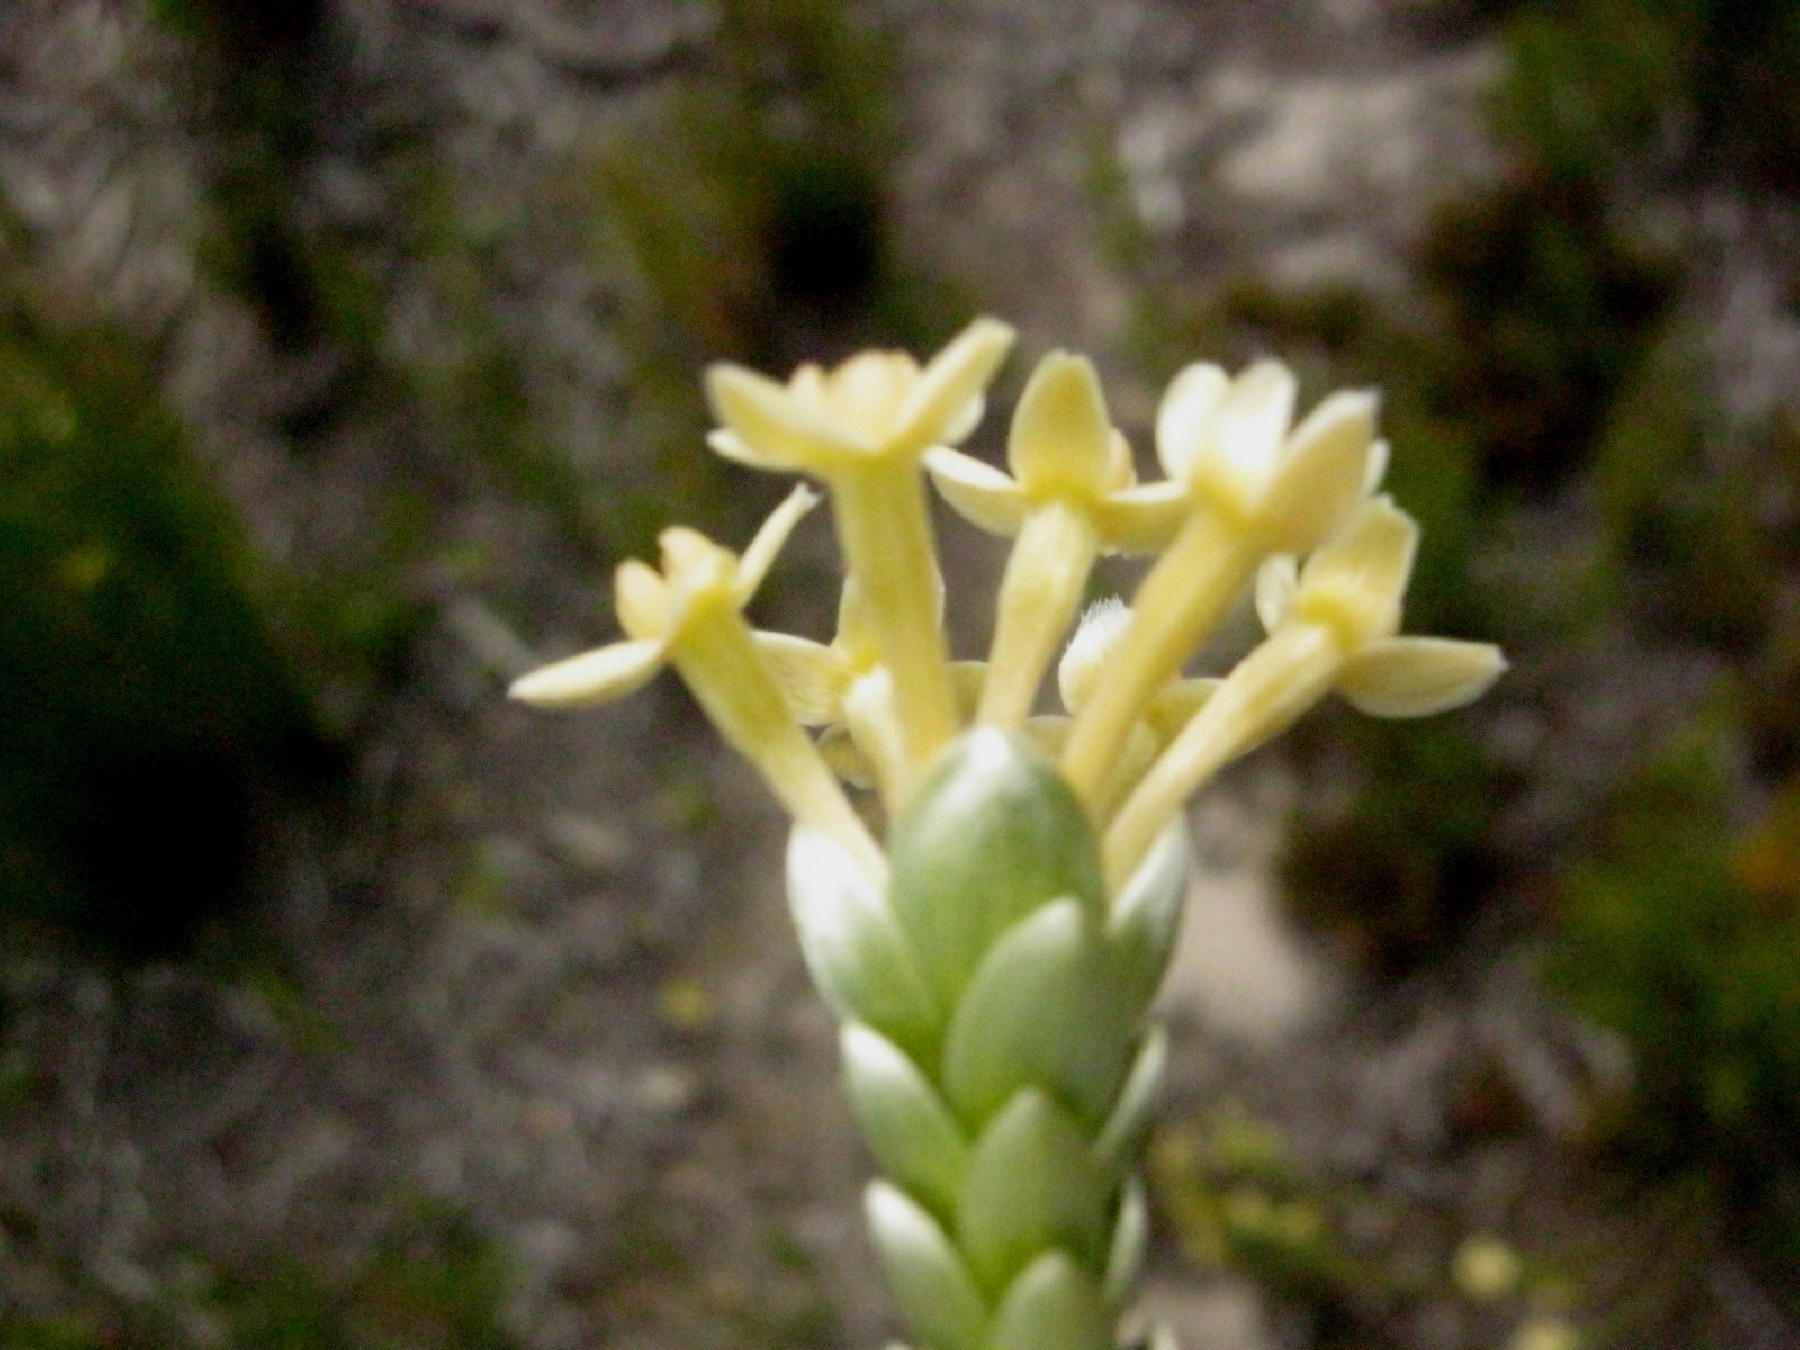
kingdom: Plantae
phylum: Tracheophyta
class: Magnoliopsida
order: Malvales
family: Thymelaeaceae
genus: Gnidia
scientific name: Gnidia chrysophylla
